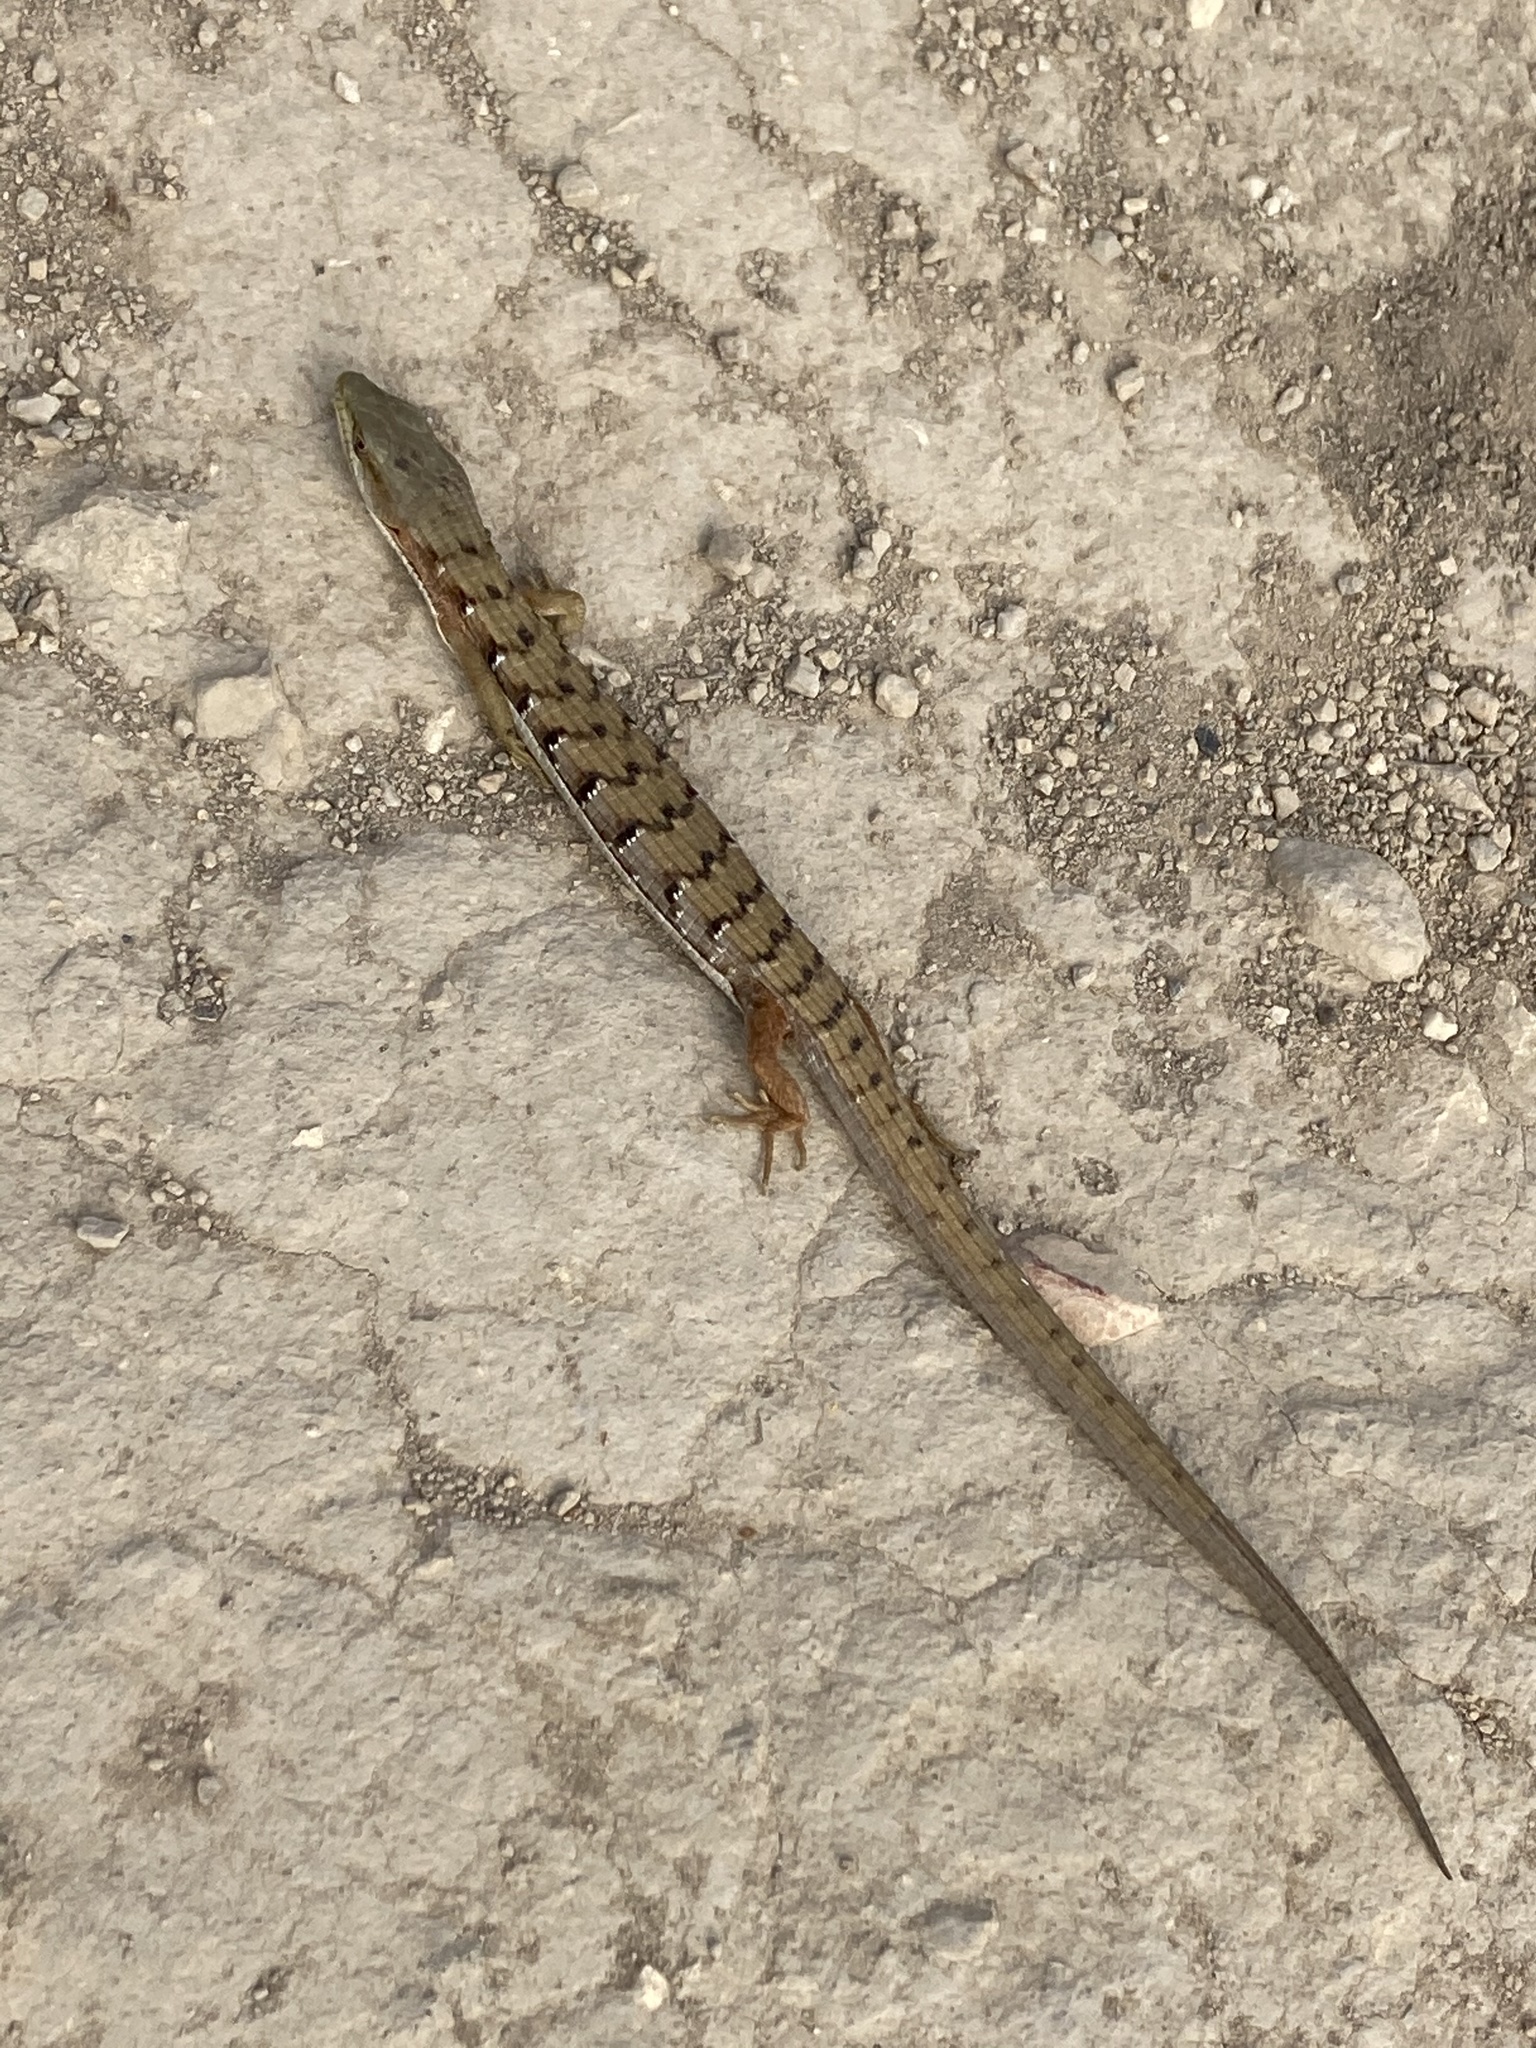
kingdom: Animalia
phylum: Chordata
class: Squamata
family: Anguidae
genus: Elgaria
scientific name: Elgaria multicarinata
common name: Southern alligator lizard
